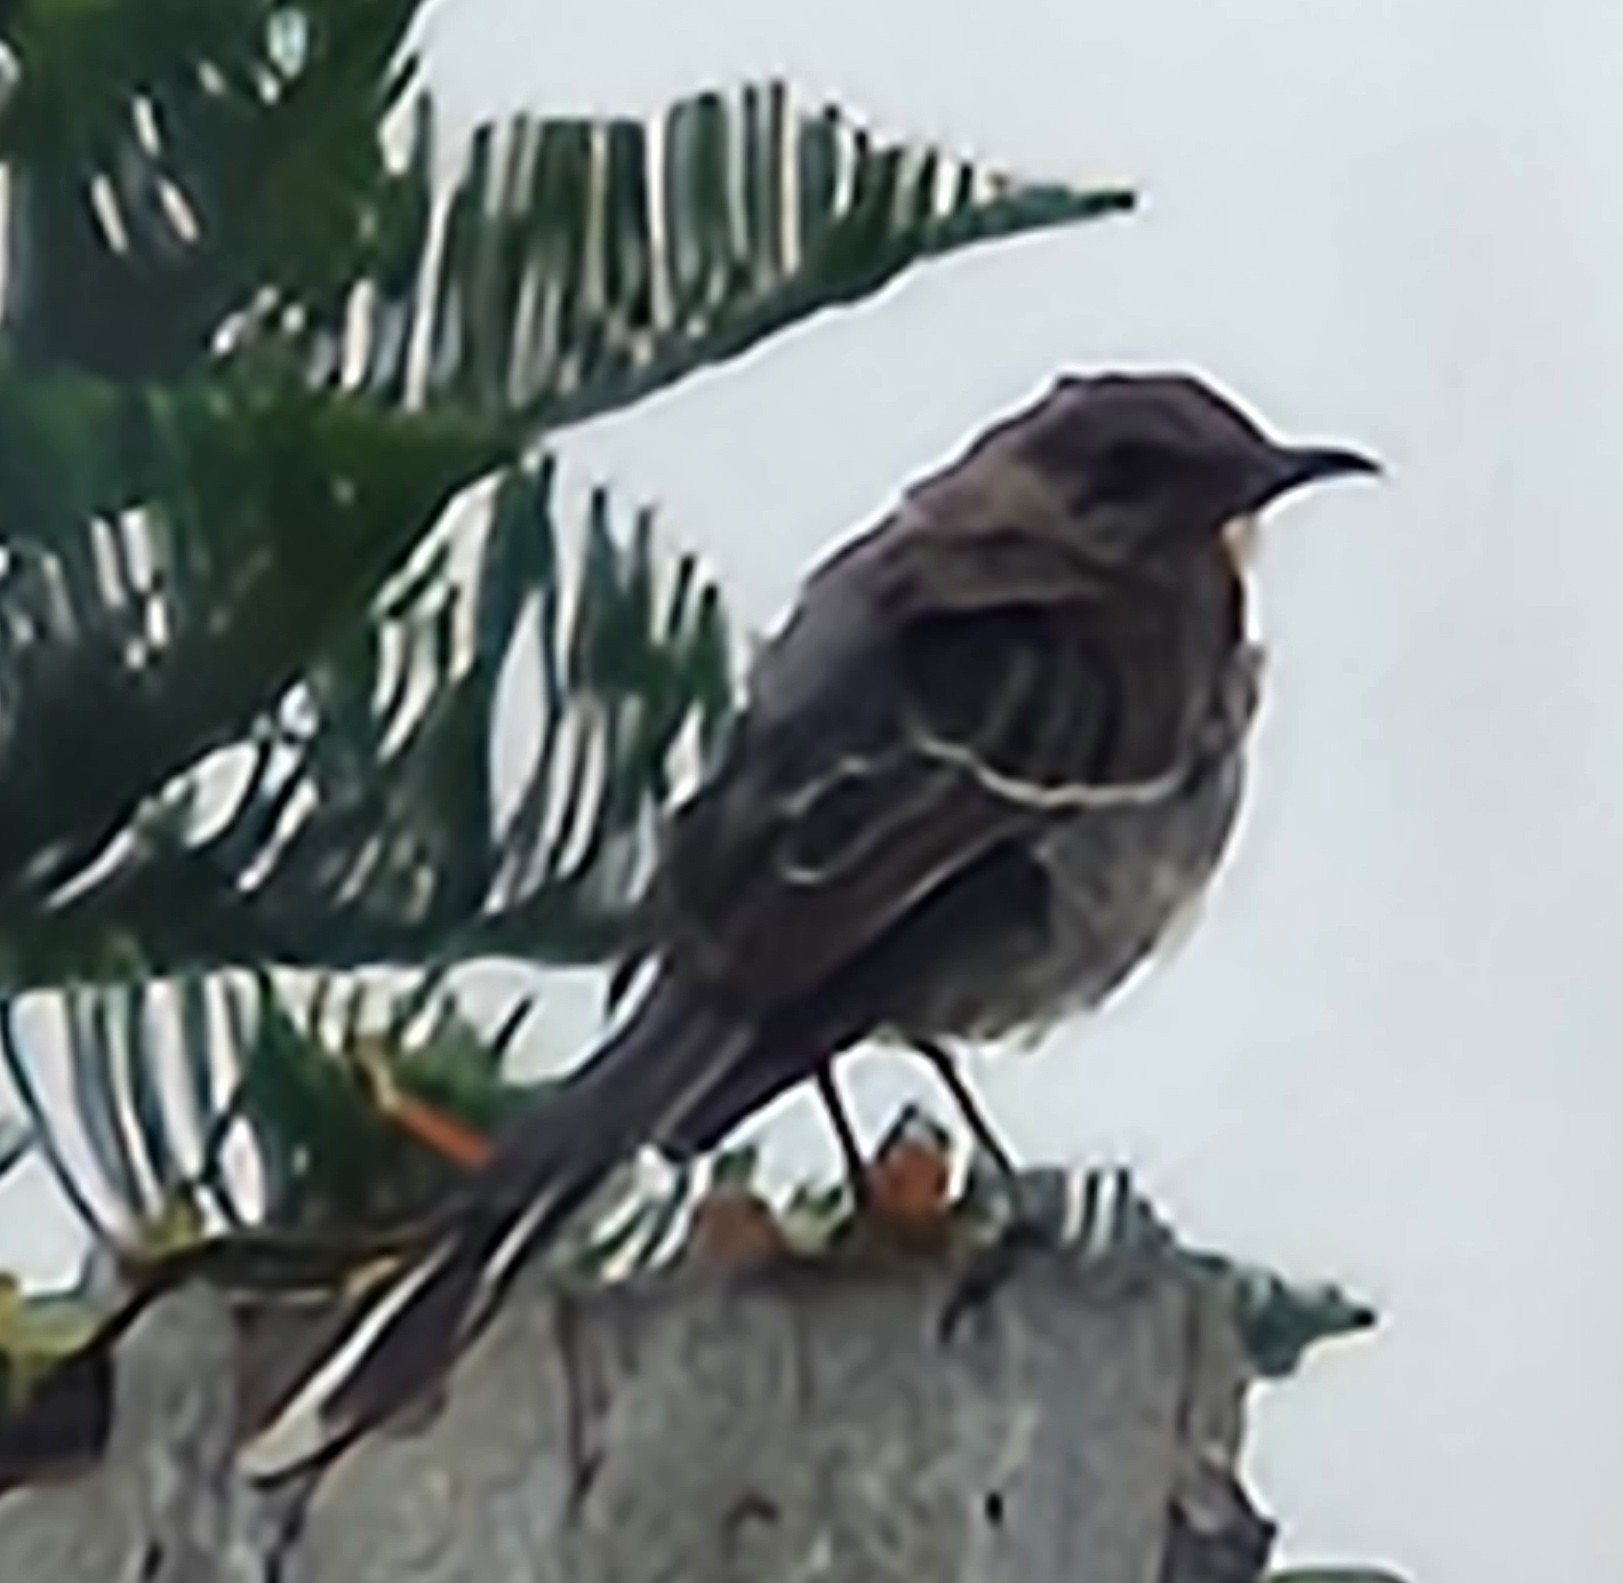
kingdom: Animalia
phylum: Chordata
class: Aves
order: Passeriformes
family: Mimidae
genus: Mimus
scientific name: Mimus polyglottos
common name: Northern mockingbird
